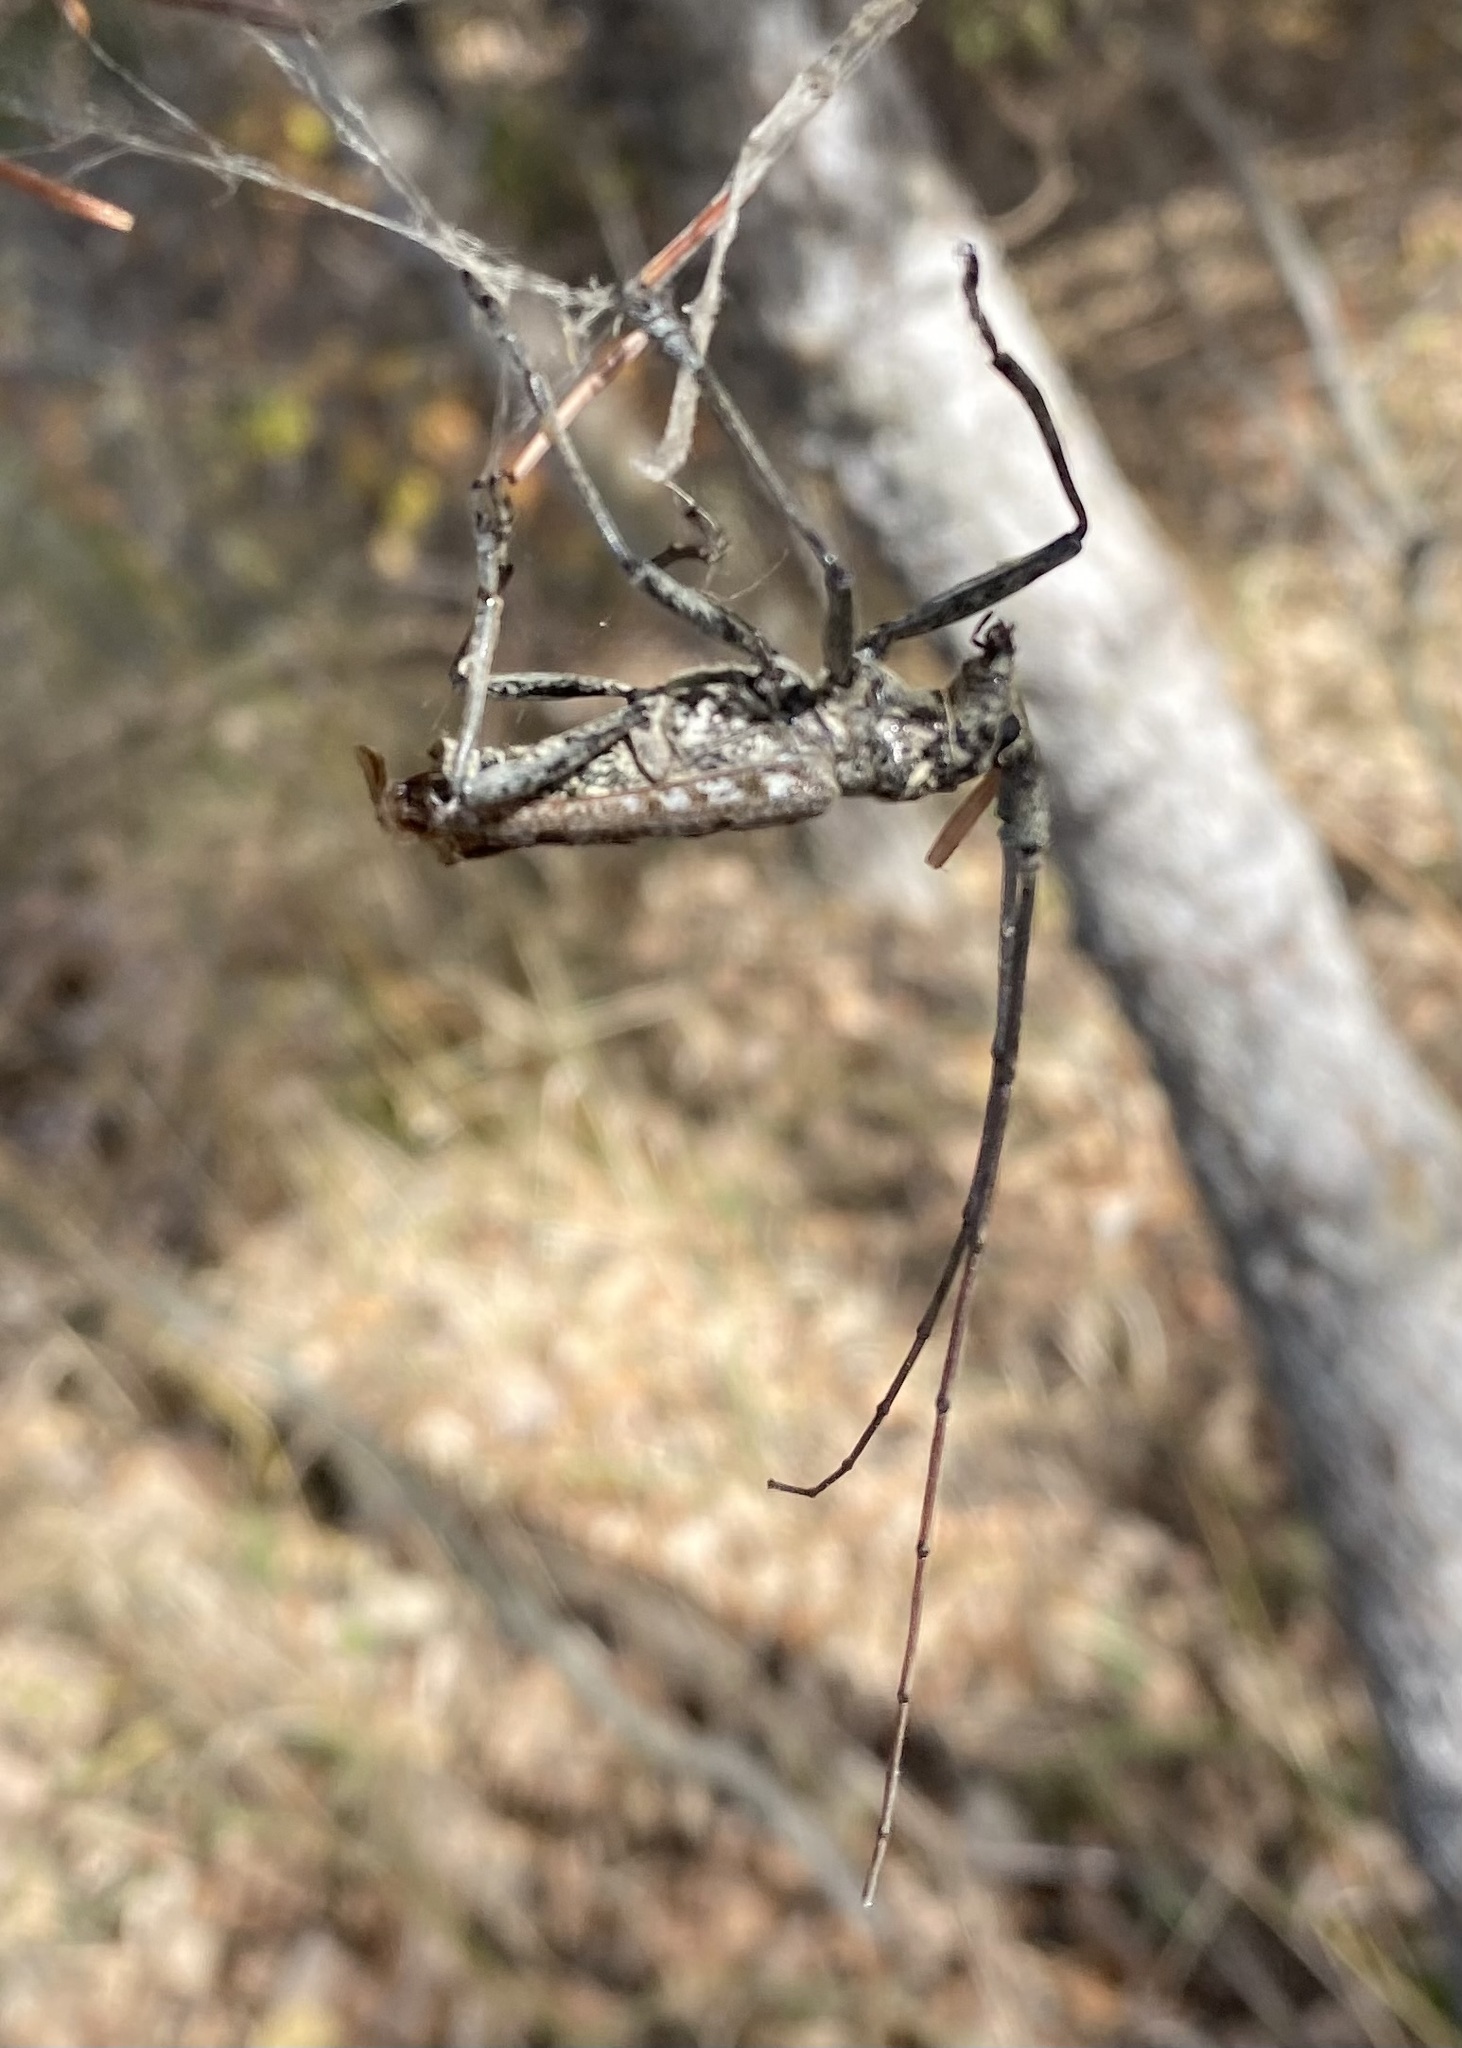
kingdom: Animalia
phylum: Arthropoda
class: Insecta
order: Coleoptera
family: Cerambycidae
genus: Monochamus
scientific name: Monochamus notatus
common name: Northeastern pine sawyer beetle
